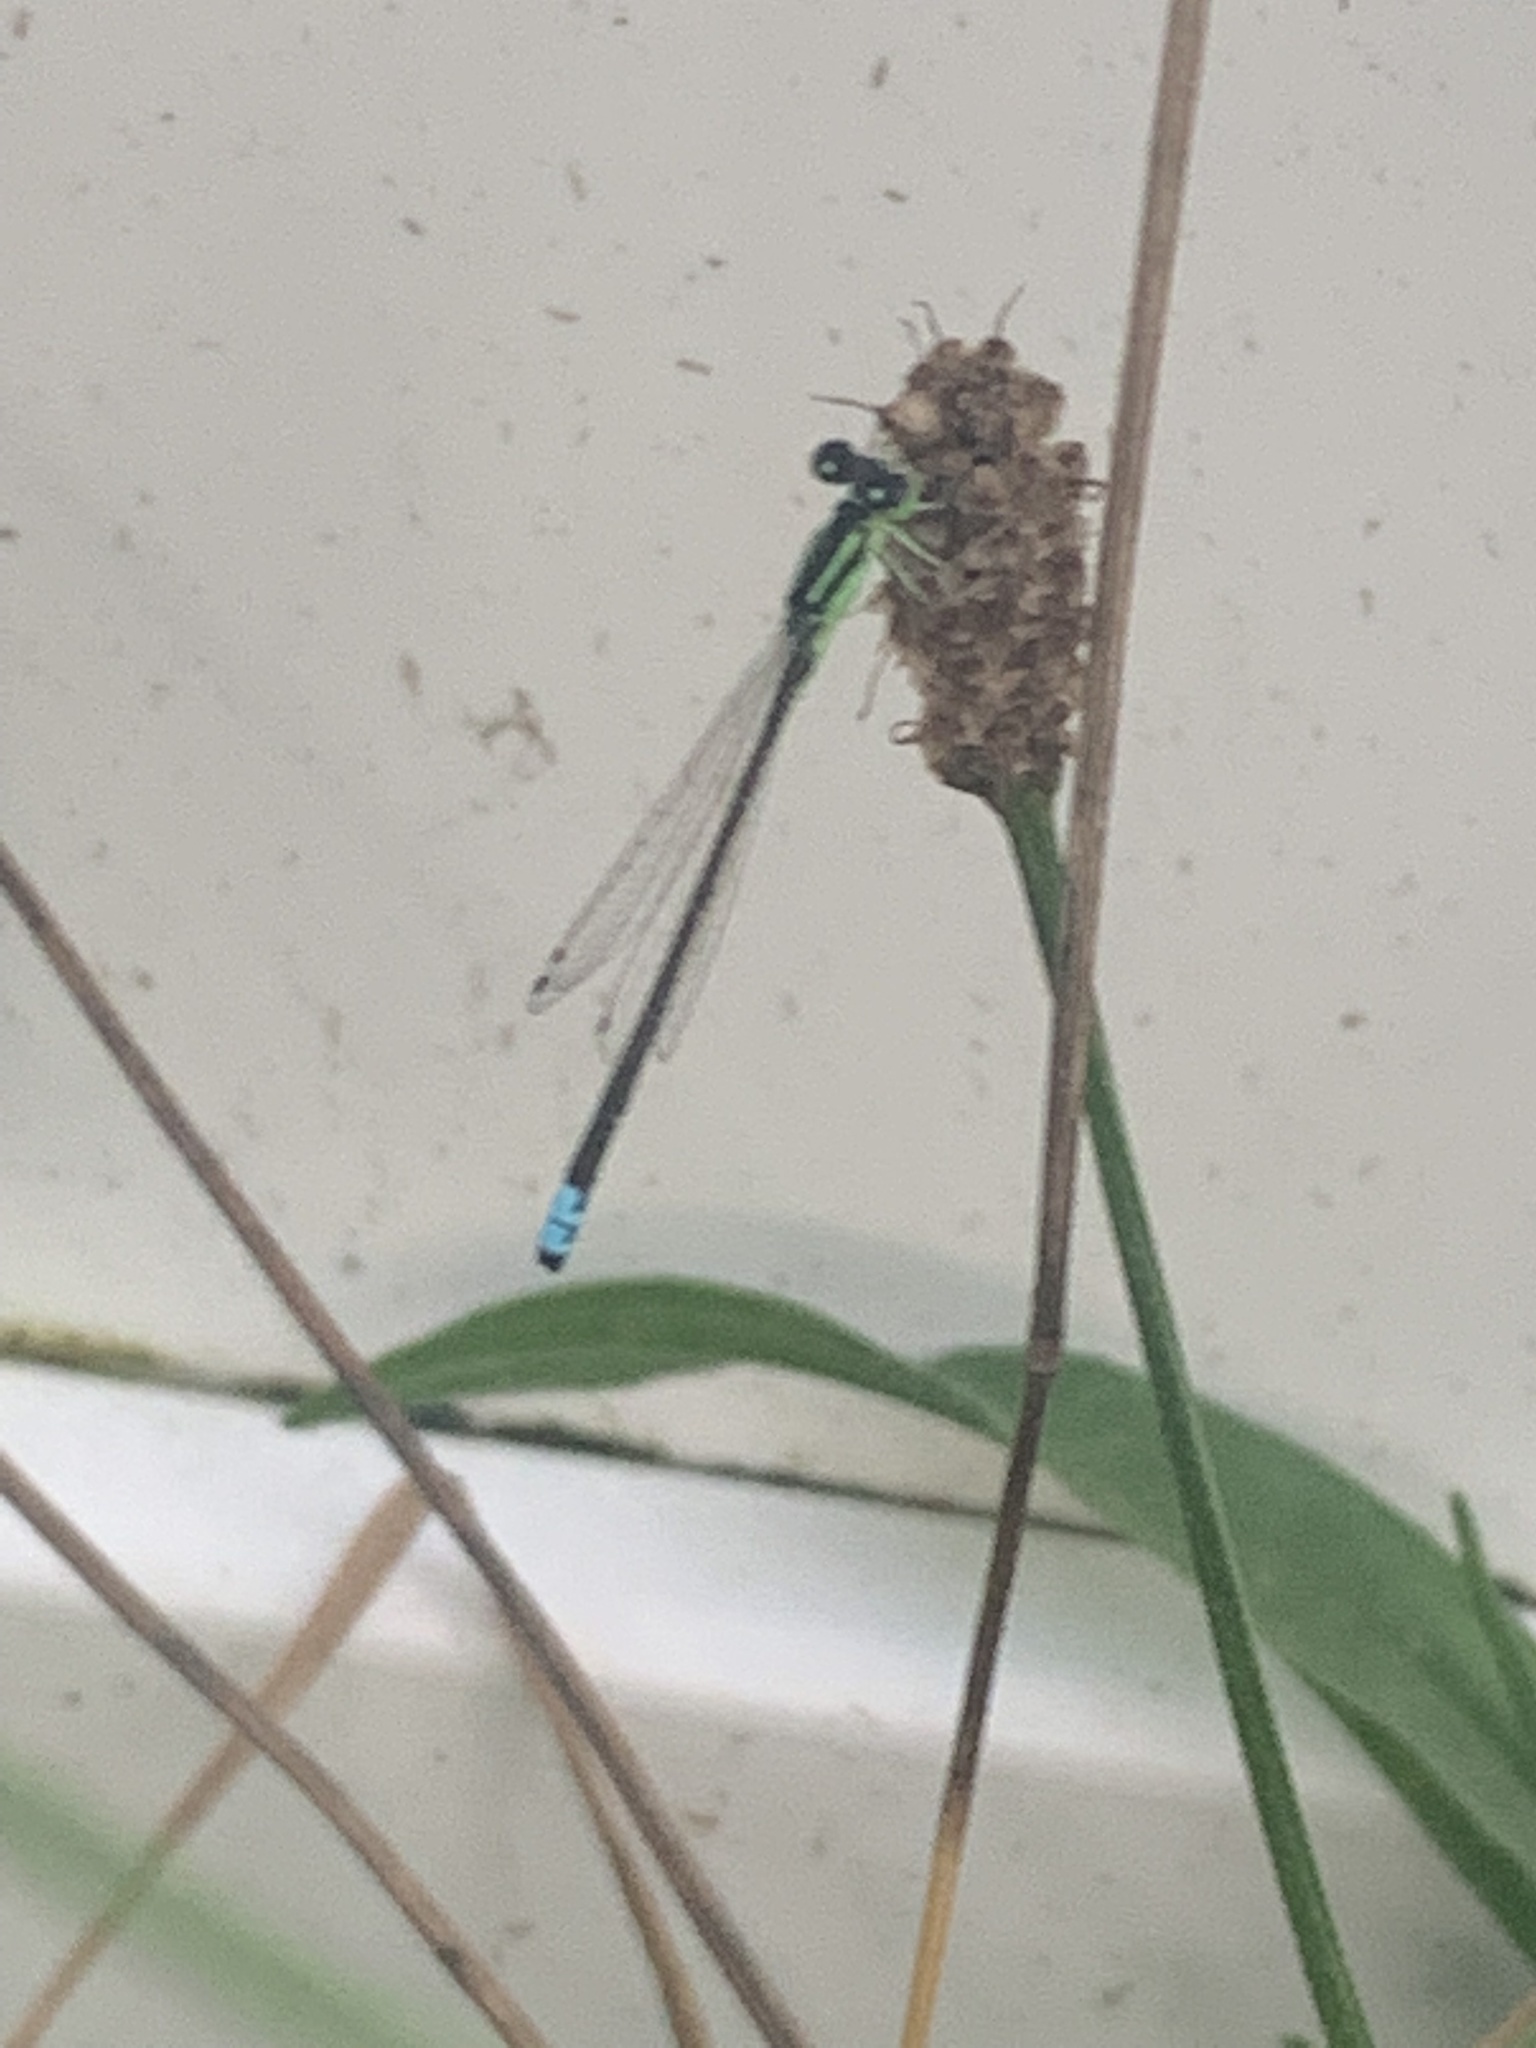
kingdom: Animalia
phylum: Arthropoda
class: Insecta
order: Odonata
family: Coenagrionidae
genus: Ischnura
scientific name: Ischnura verticalis
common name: Eastern forktail
